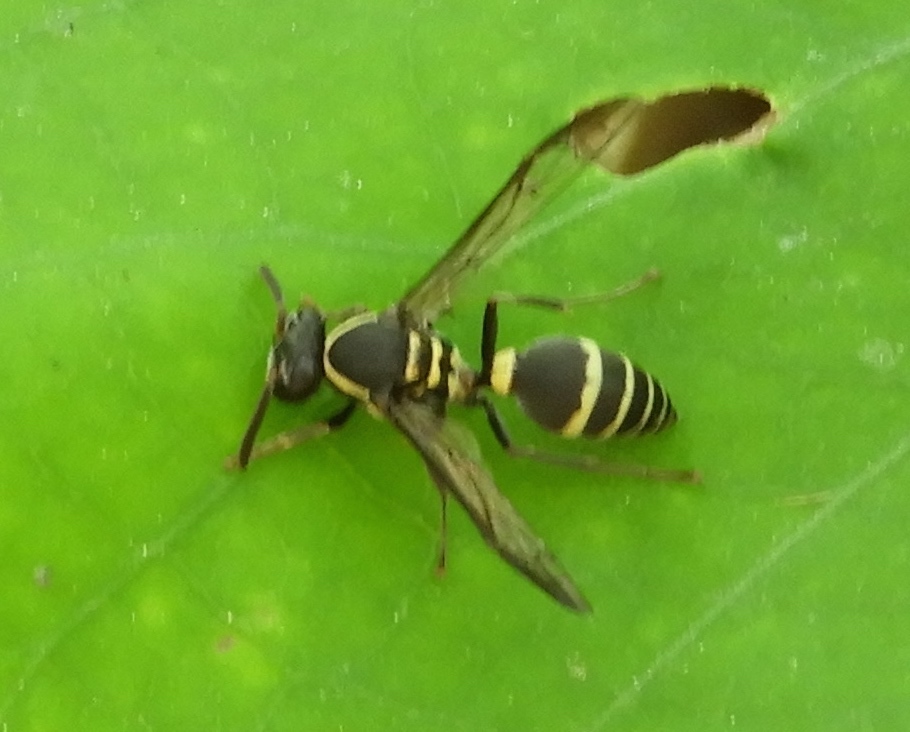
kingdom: Animalia
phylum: Arthropoda
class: Insecta
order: Hymenoptera
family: Vespidae
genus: Myrapetra
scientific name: Myrapetra
